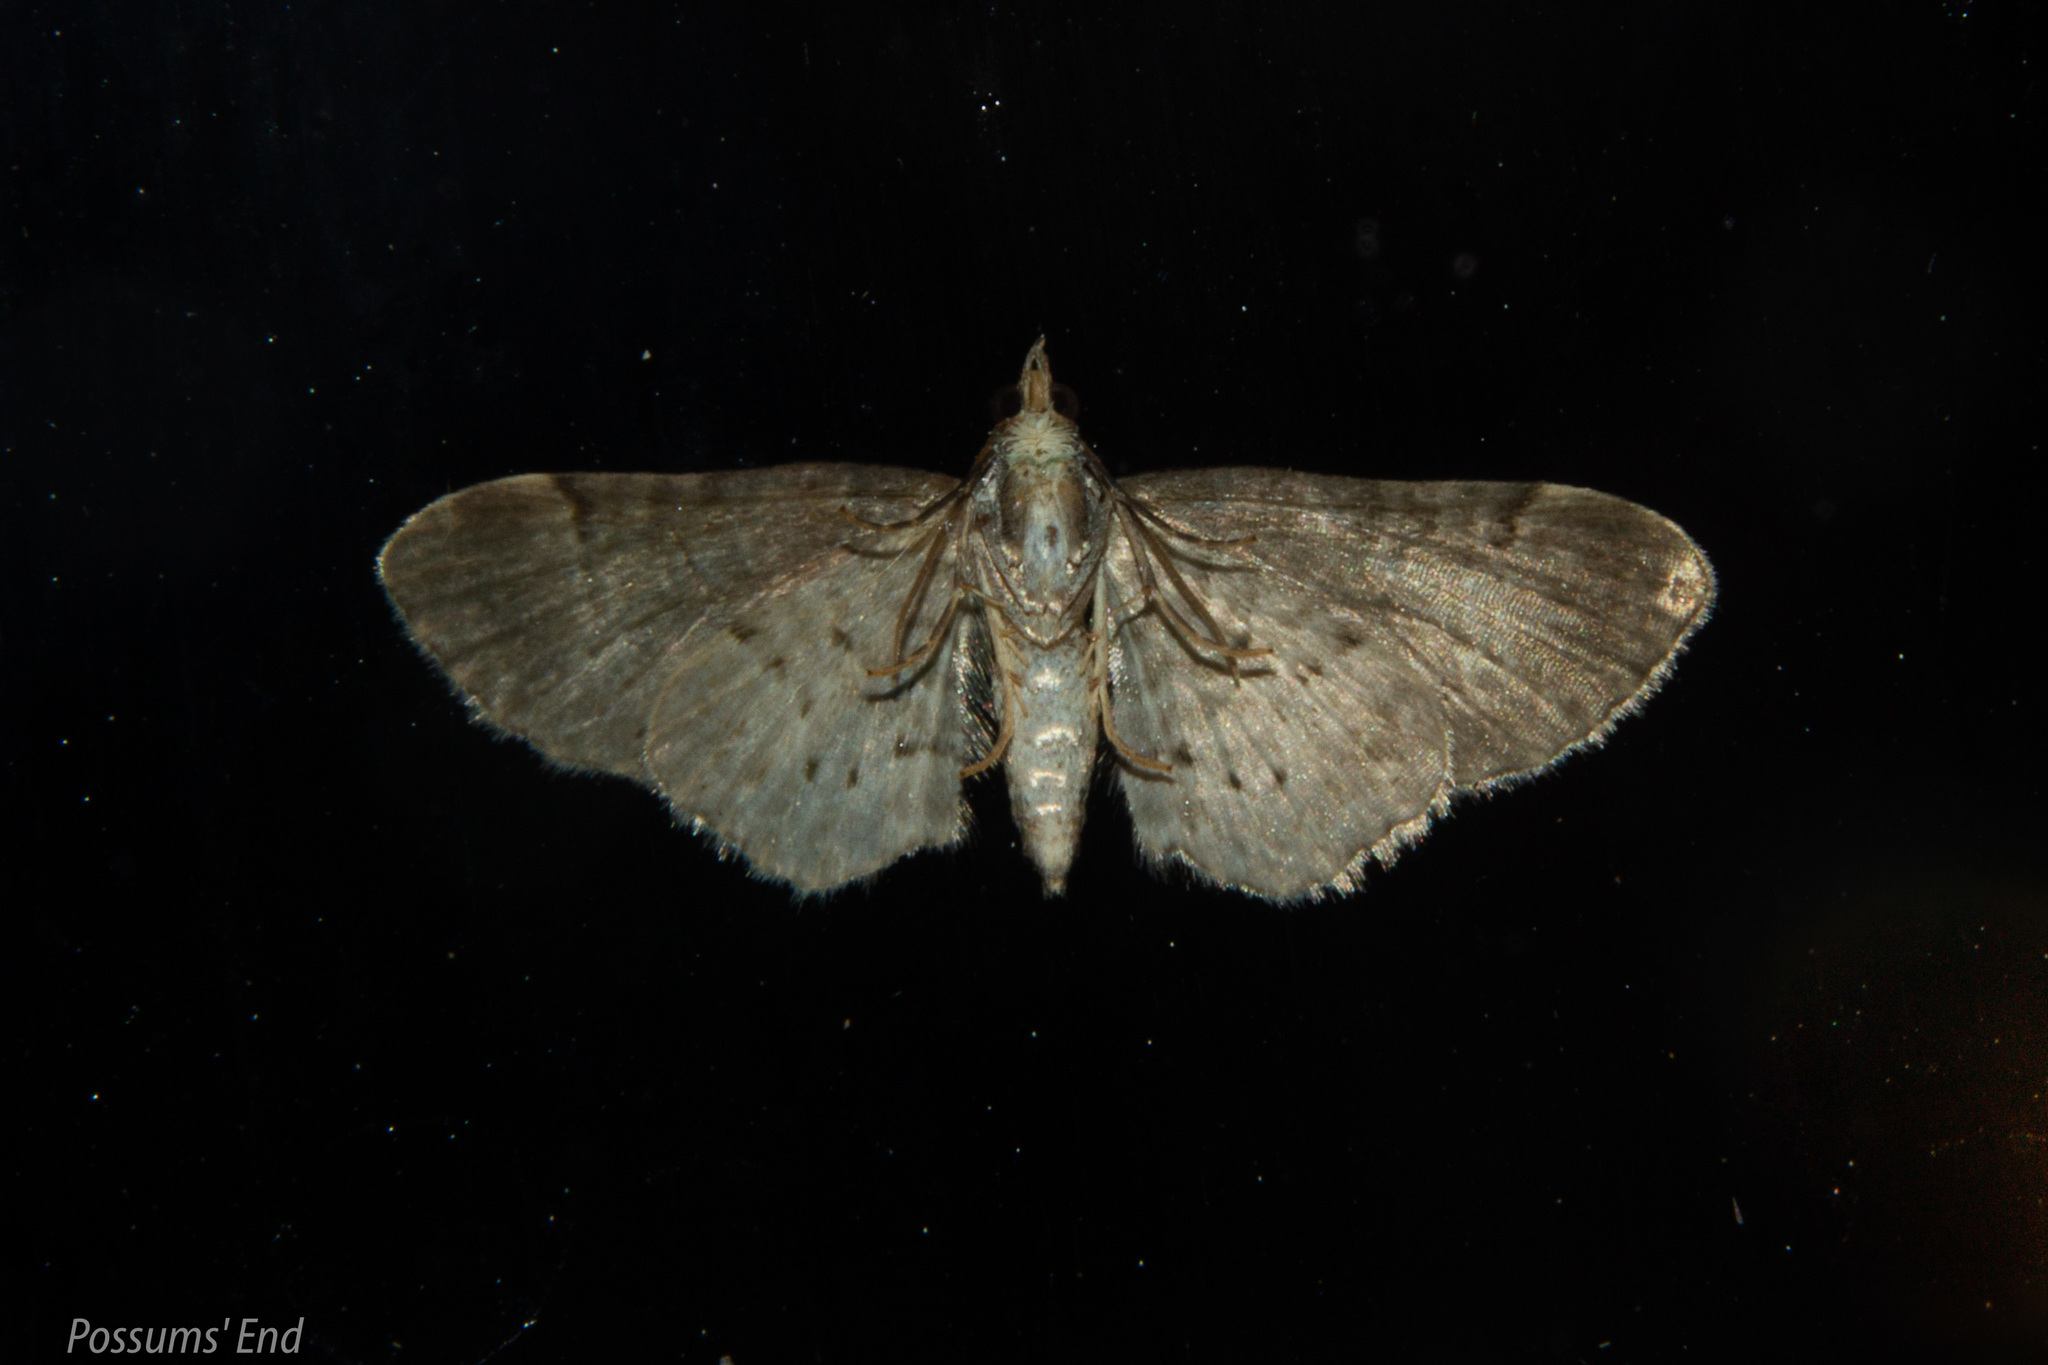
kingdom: Animalia
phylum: Arthropoda
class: Insecta
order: Lepidoptera
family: Geometridae
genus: Chloroclystis
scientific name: Chloroclystis
